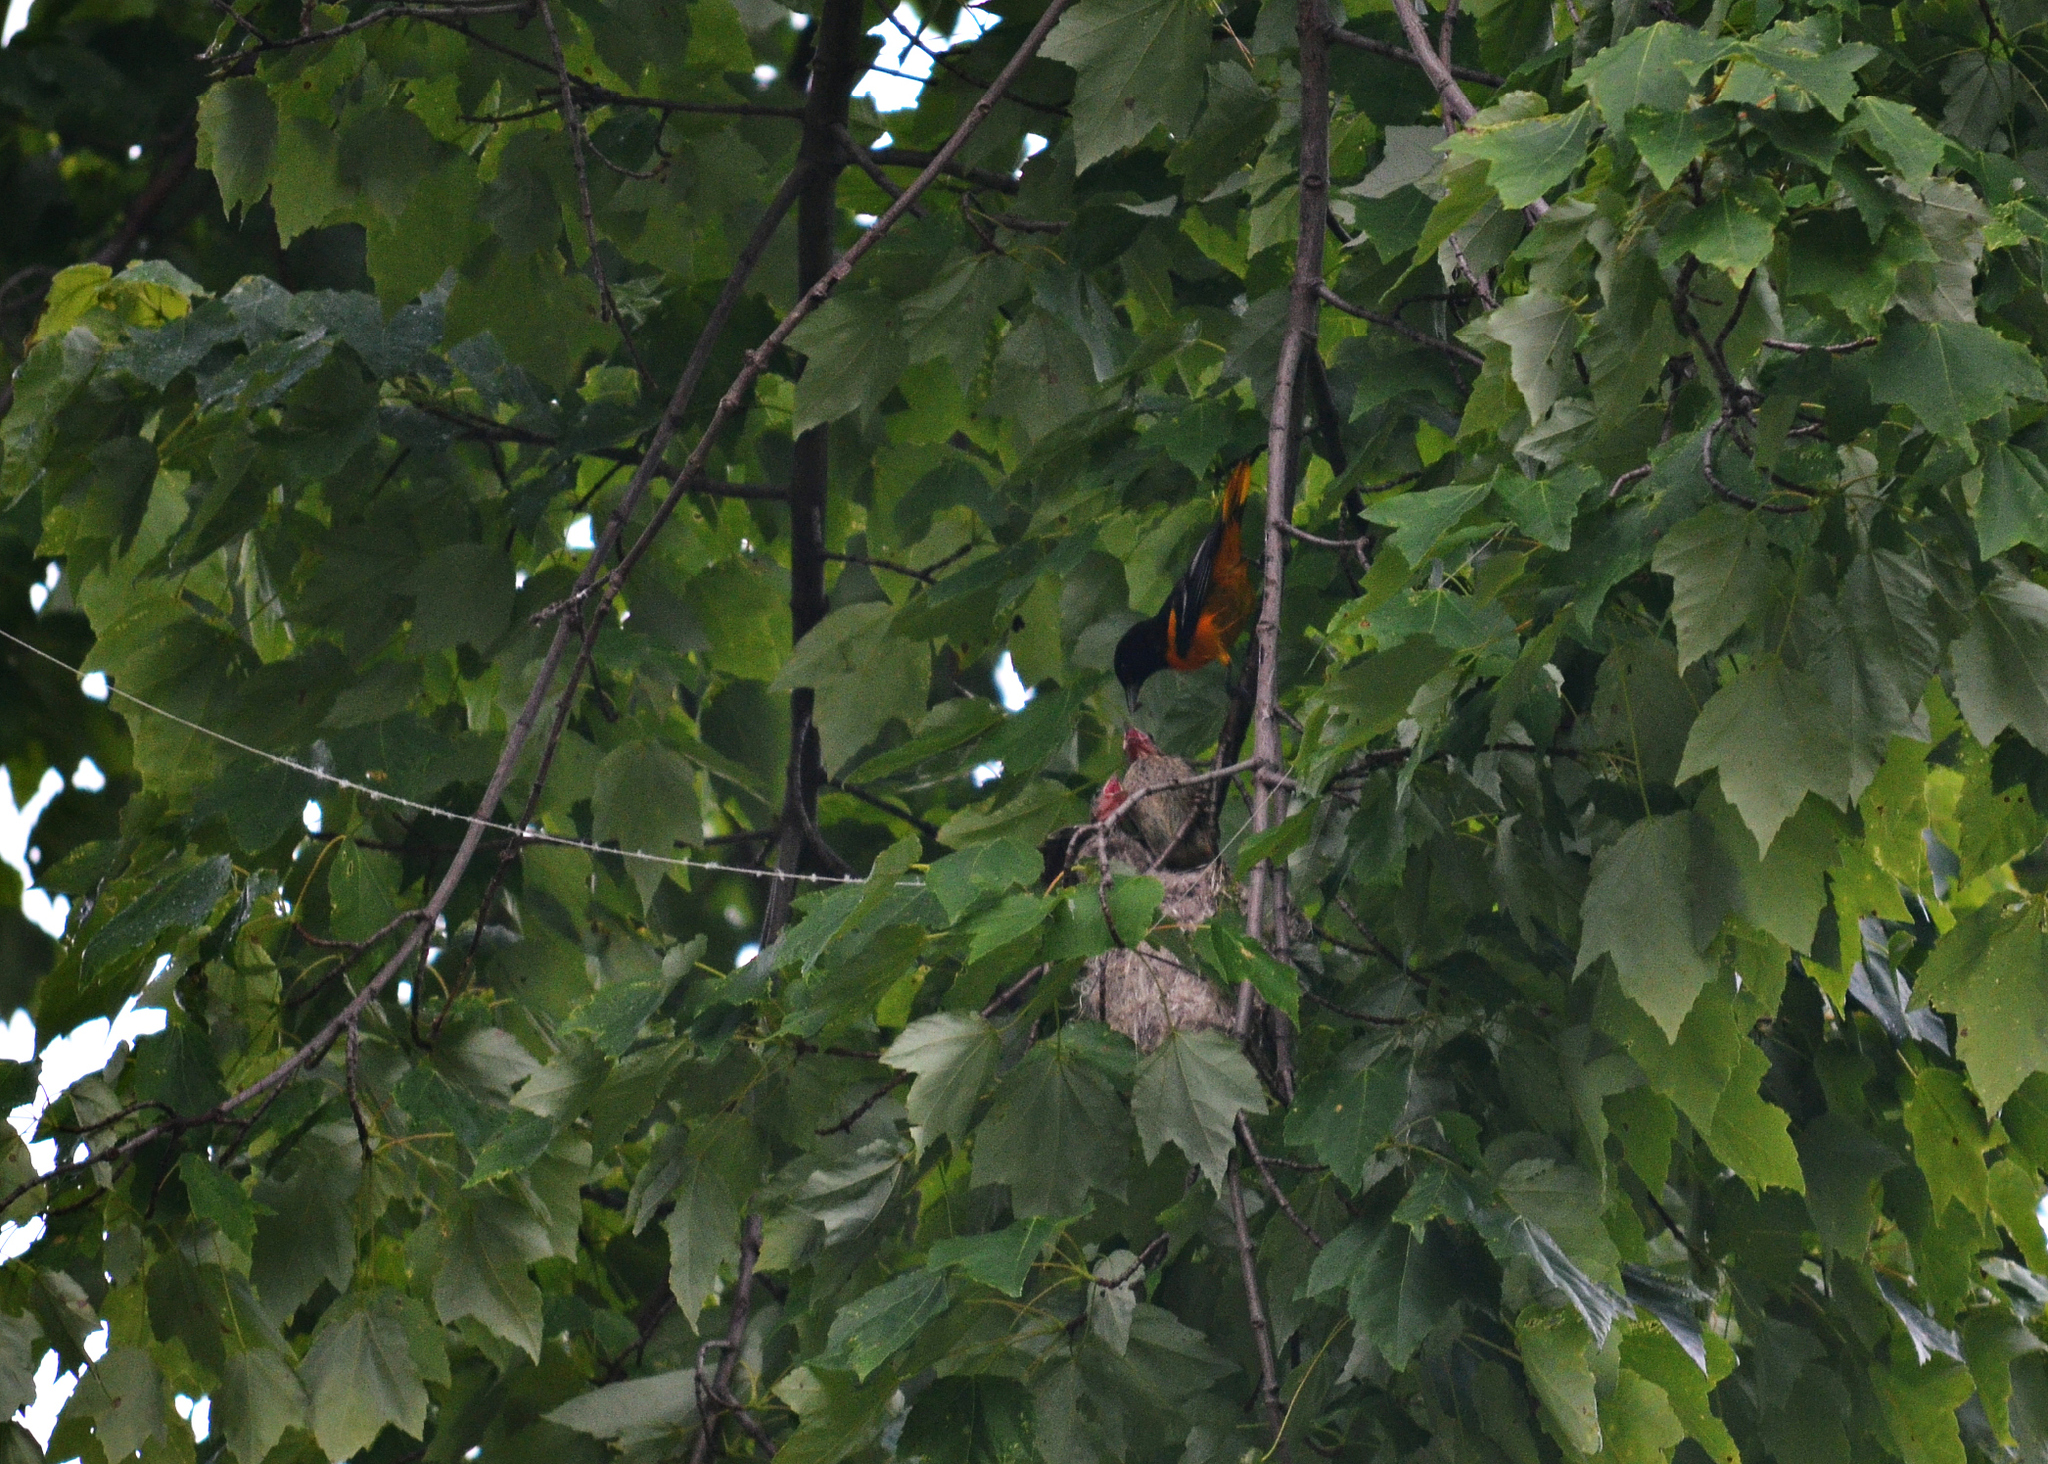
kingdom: Animalia
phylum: Chordata
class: Aves
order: Passeriformes
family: Icteridae
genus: Icterus
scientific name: Icterus galbula
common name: Baltimore oriole
